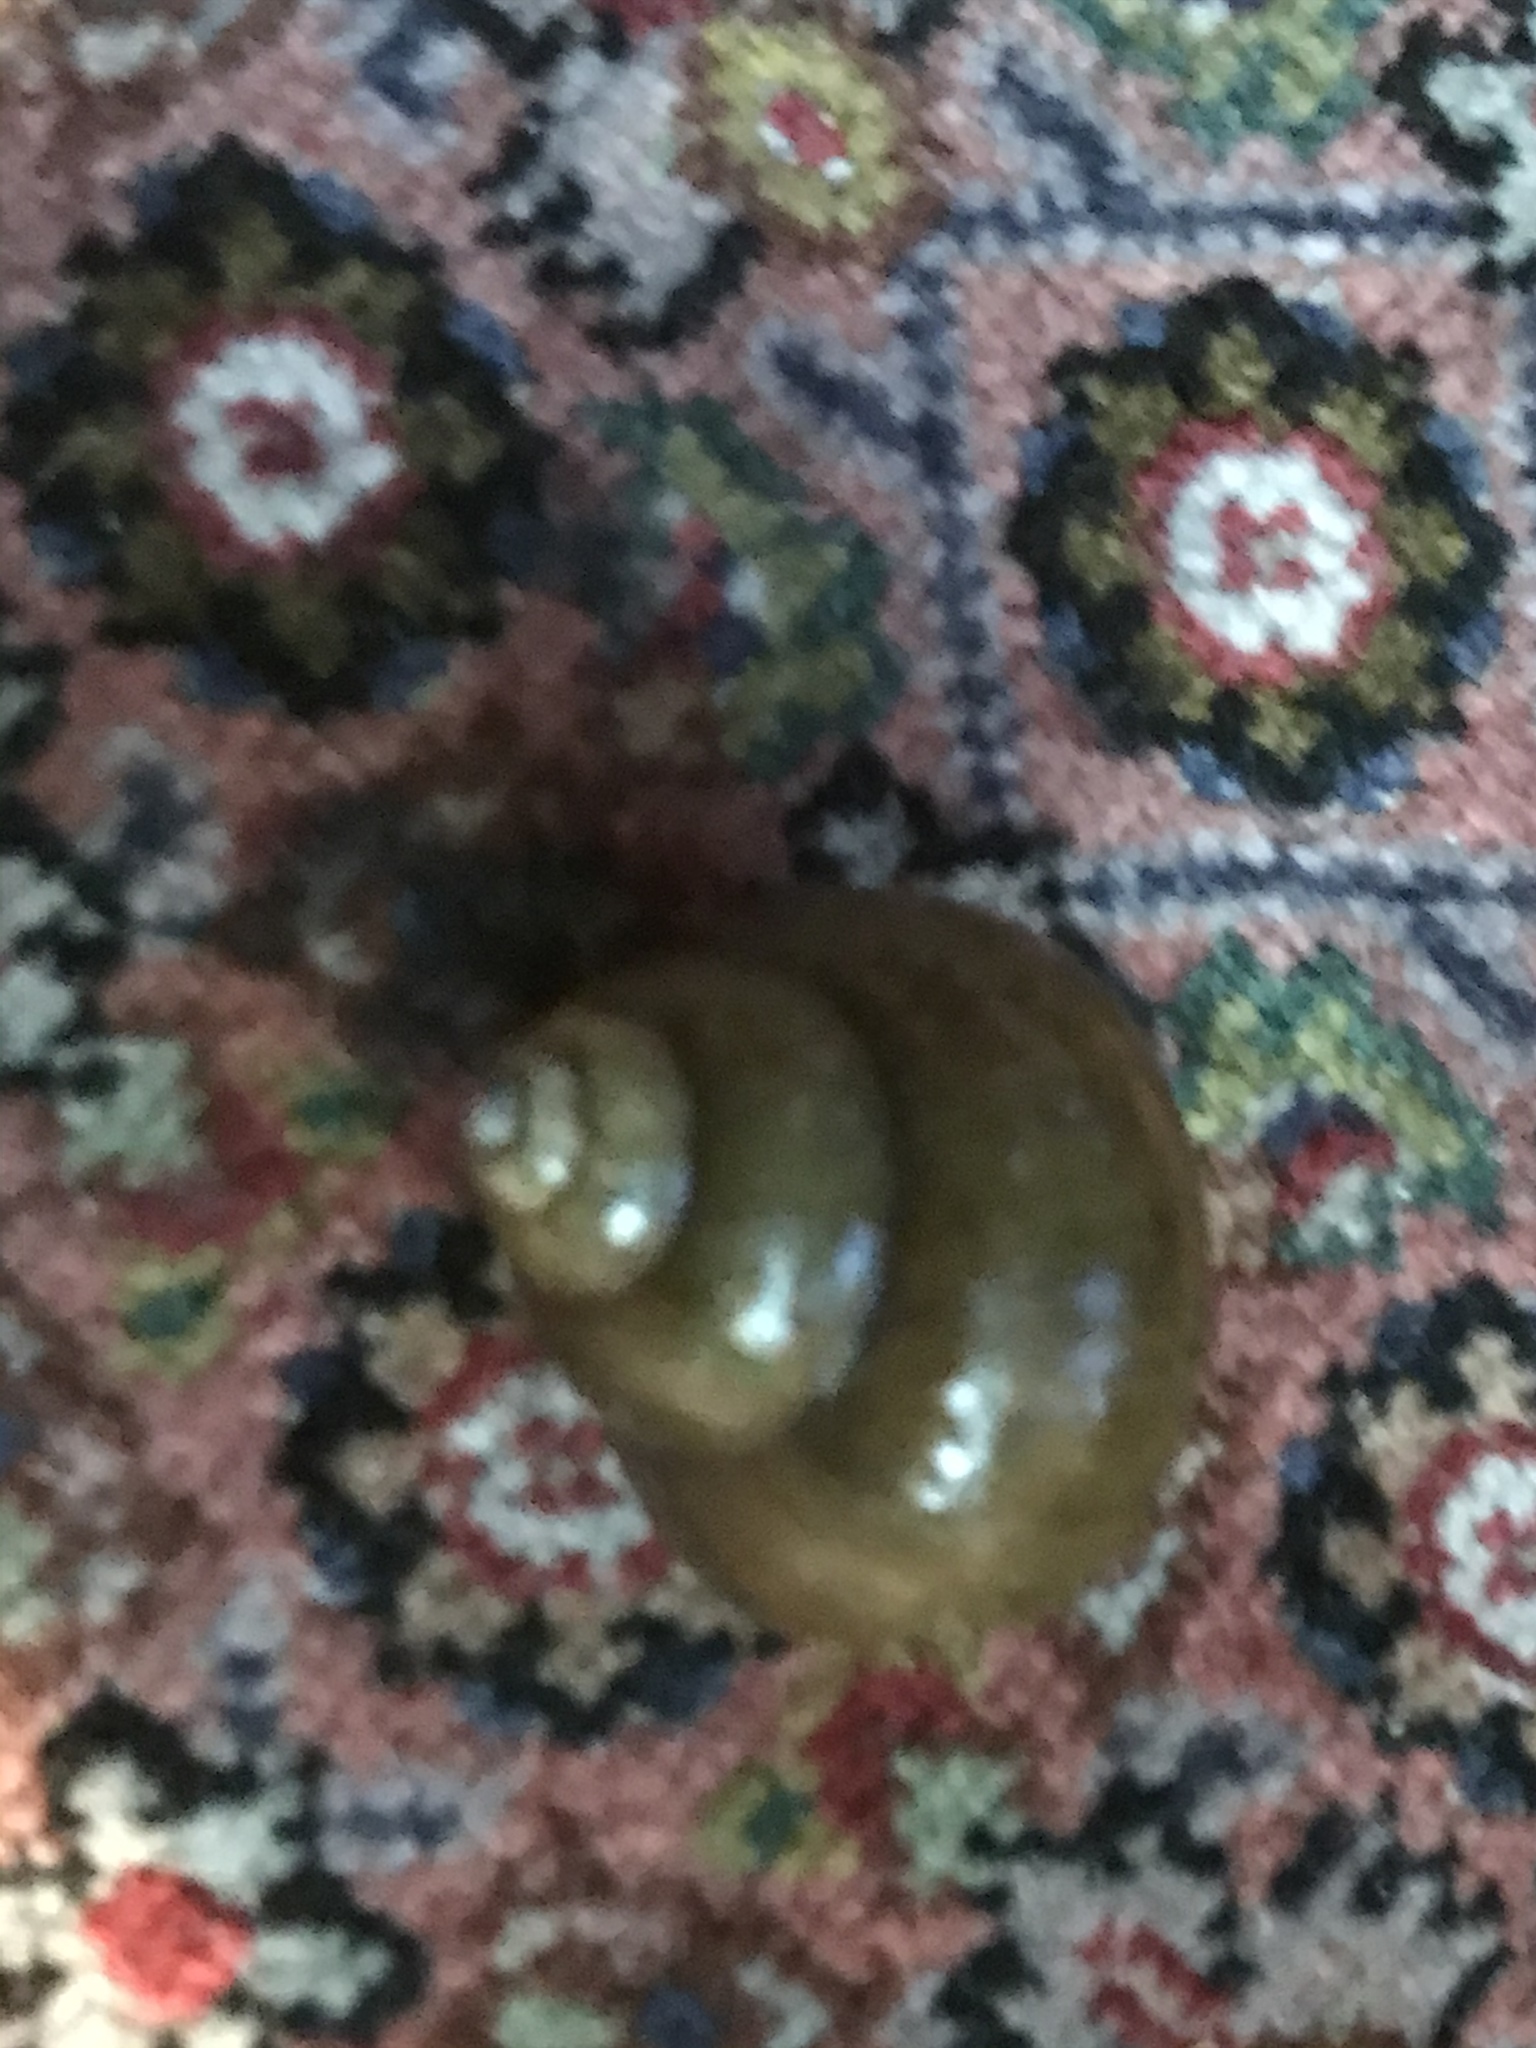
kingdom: Animalia
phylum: Mollusca
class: Gastropoda
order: Architaenioglossa
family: Viviparidae
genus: Cipangopaludina
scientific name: Cipangopaludina chinensis
